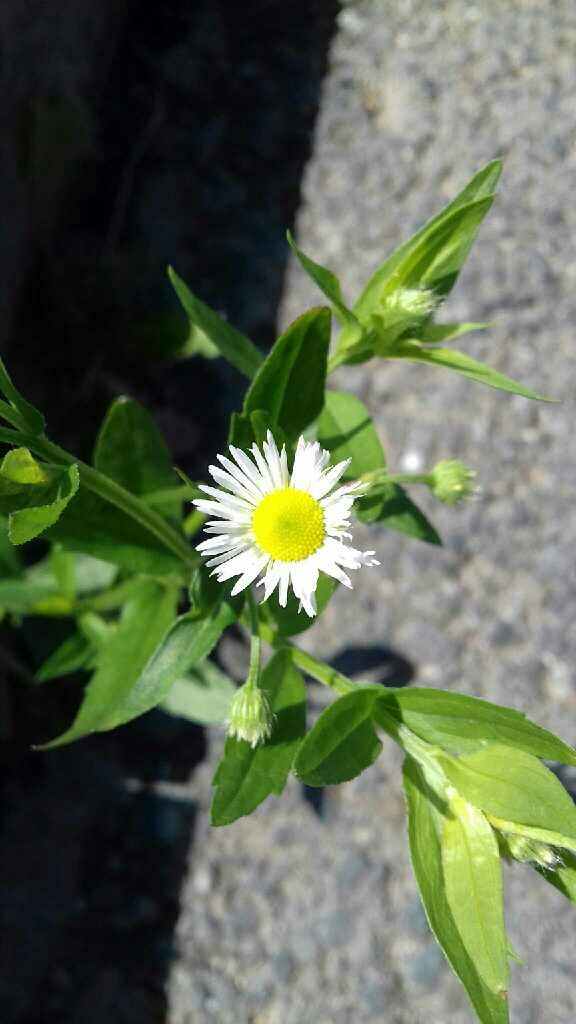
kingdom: Plantae
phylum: Tracheophyta
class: Magnoliopsida
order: Asterales
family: Asteraceae
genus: Erigeron
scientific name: Erigeron annuus
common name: Tall fleabane
